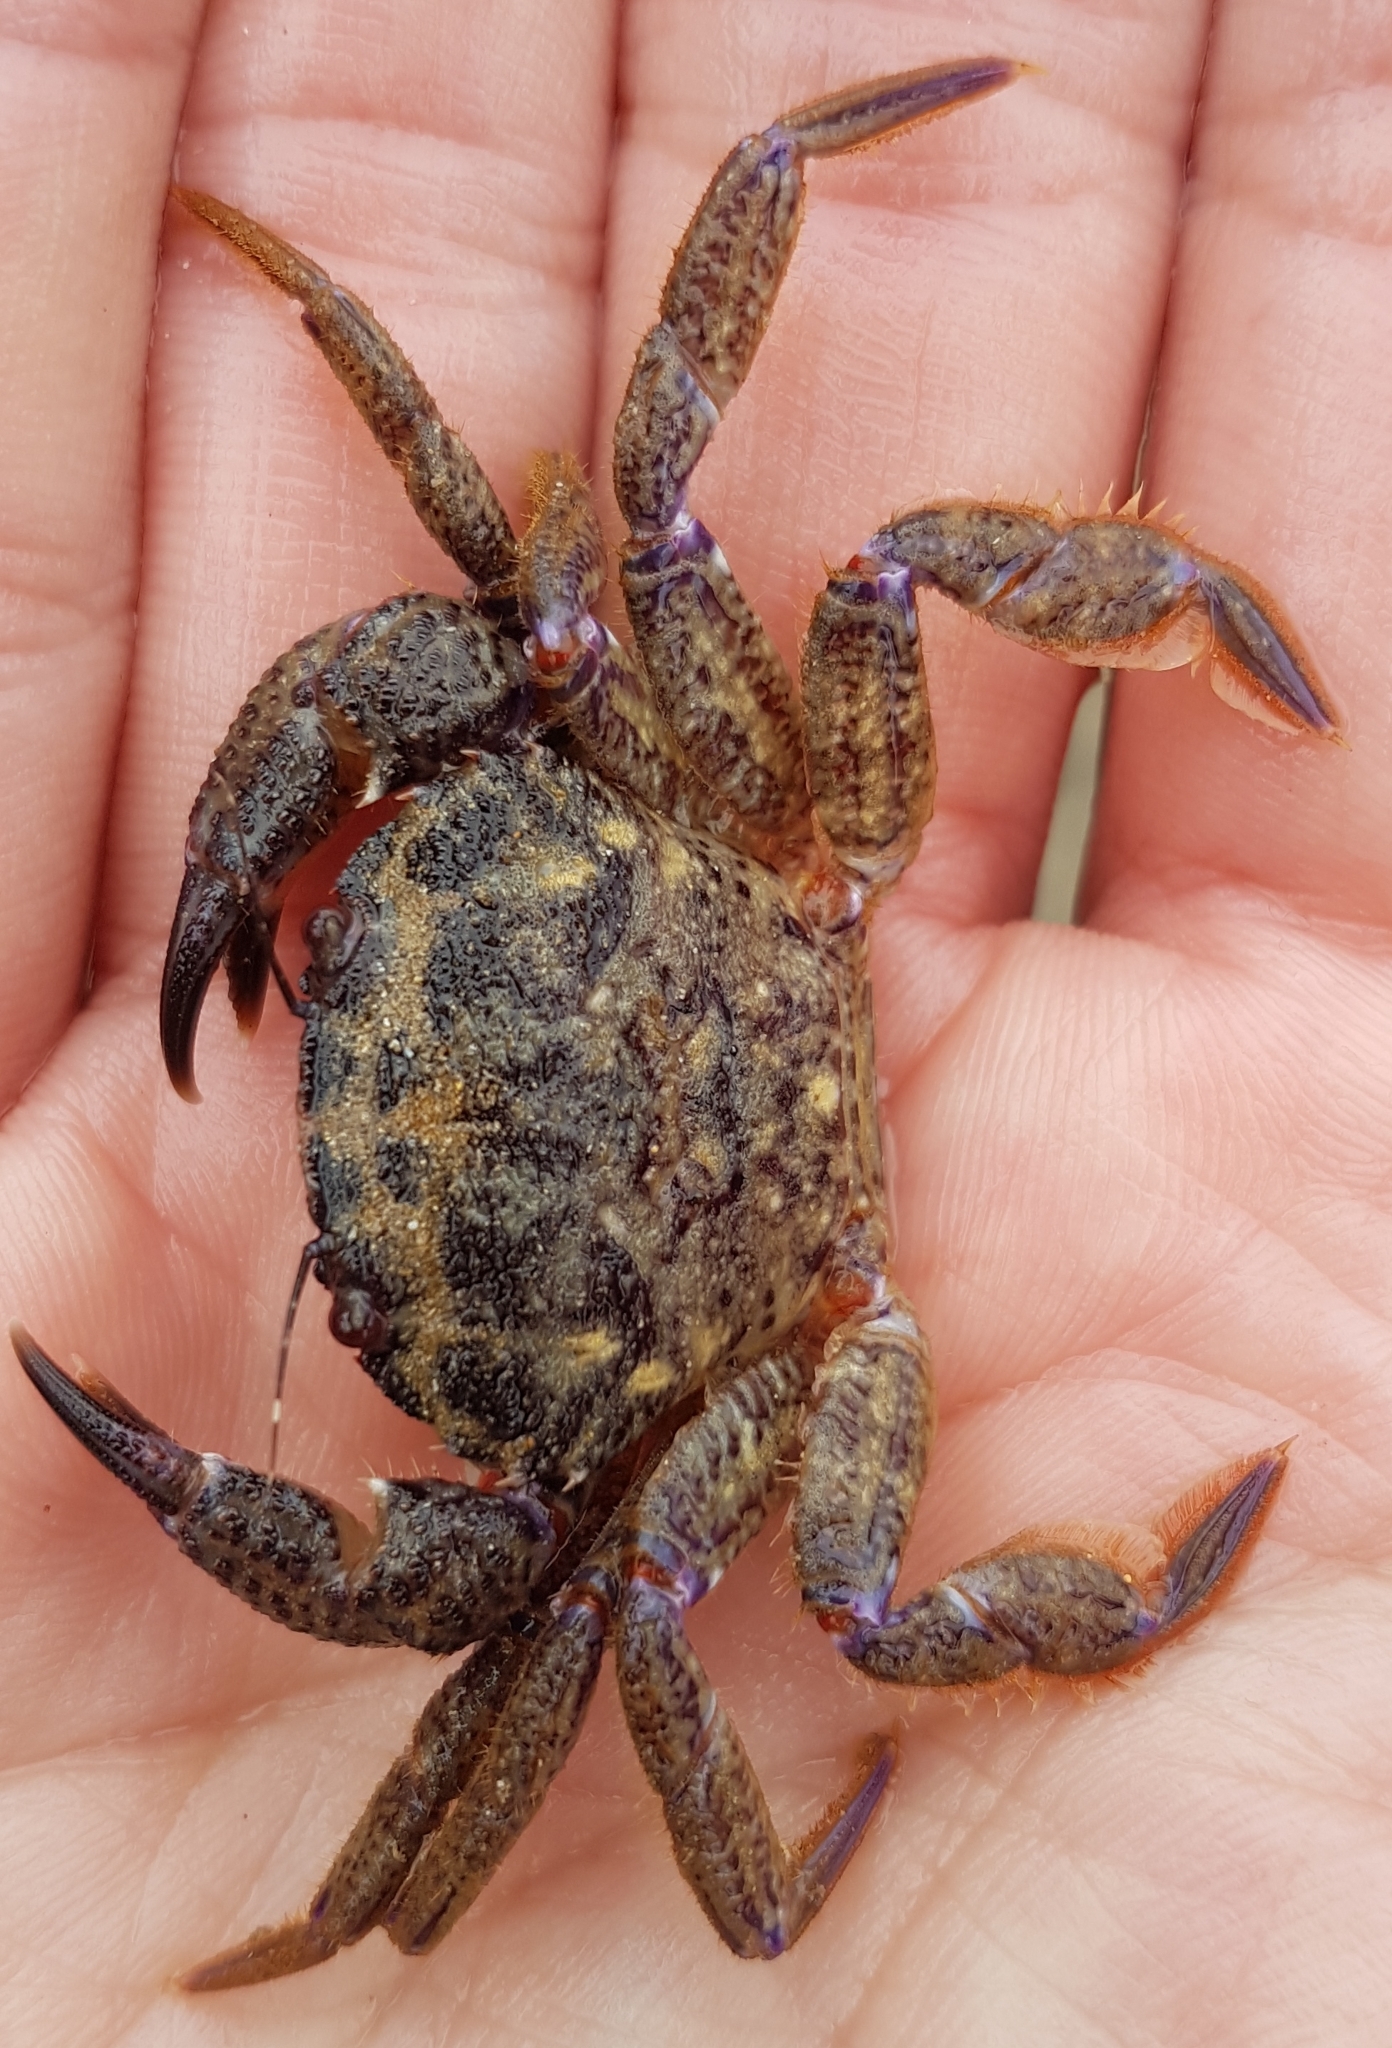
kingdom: Animalia
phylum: Arthropoda
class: Malacostraca
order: Decapoda
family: Geryonidae
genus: Nectocarcinus
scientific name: Nectocarcinus tuberculosus
